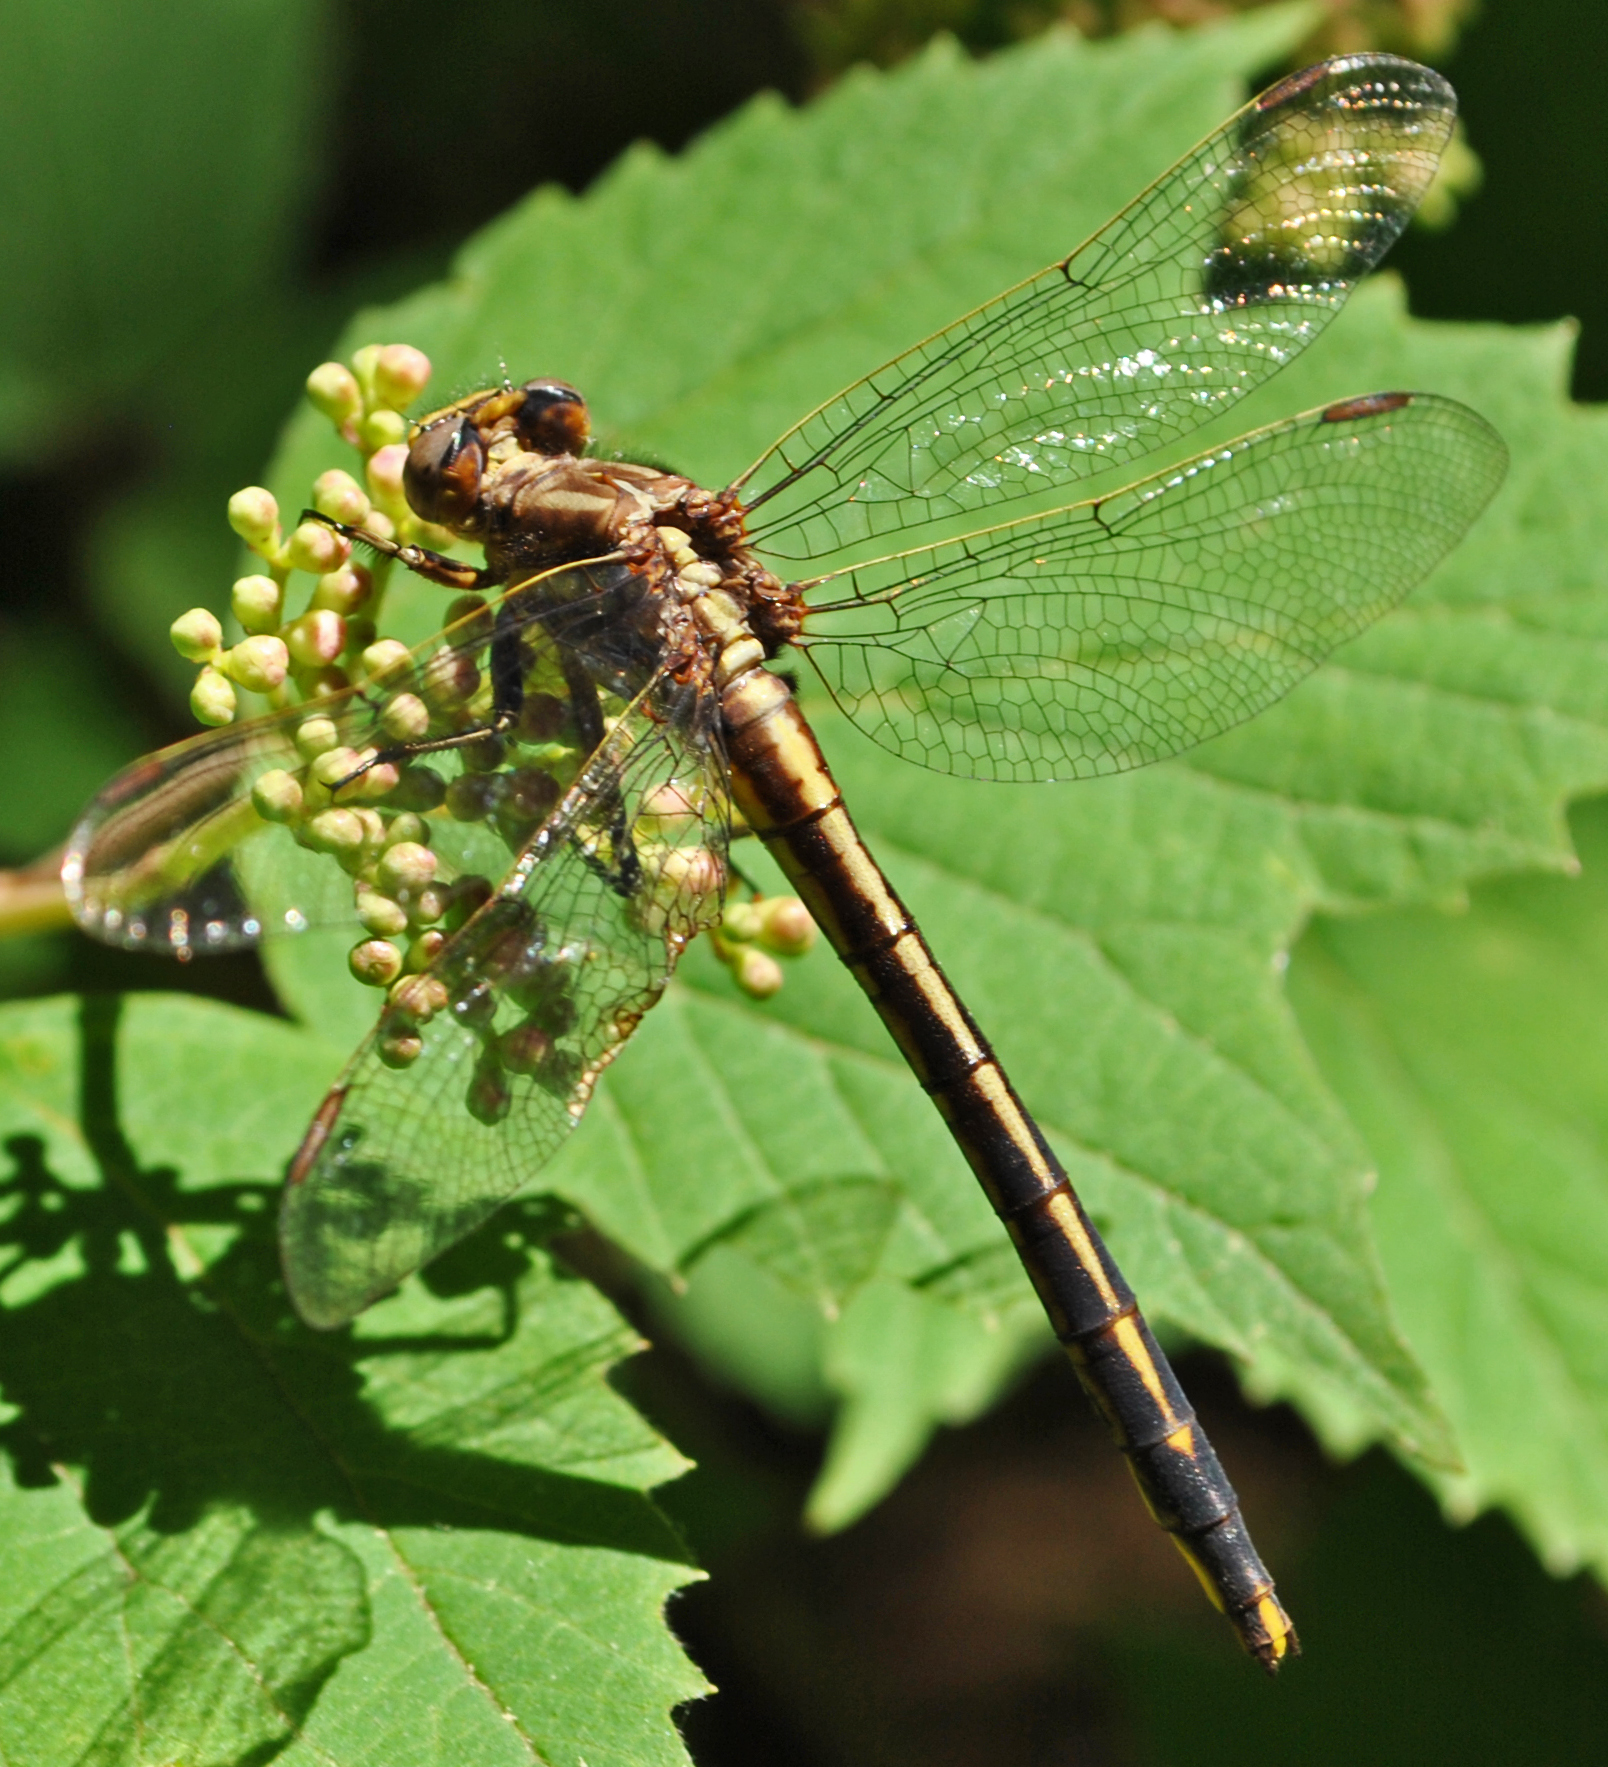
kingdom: Animalia
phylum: Arthropoda
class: Insecta
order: Odonata
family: Gomphidae
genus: Phanogomphus
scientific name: Phanogomphus spicatus
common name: Dusky clubtail
